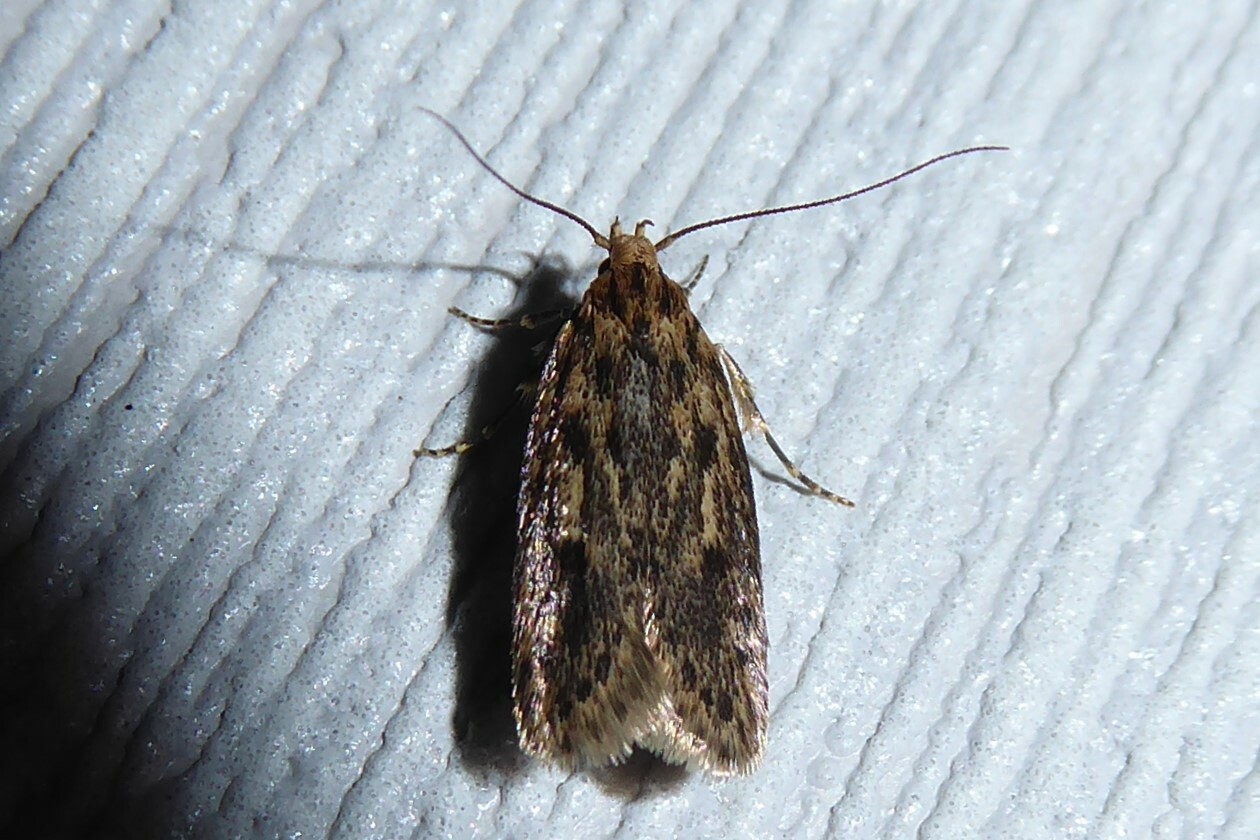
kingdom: Animalia
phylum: Arthropoda
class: Insecta
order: Lepidoptera
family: Oecophoridae
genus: Hofmannophila
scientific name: Hofmannophila pseudospretella
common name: Brown house moth
